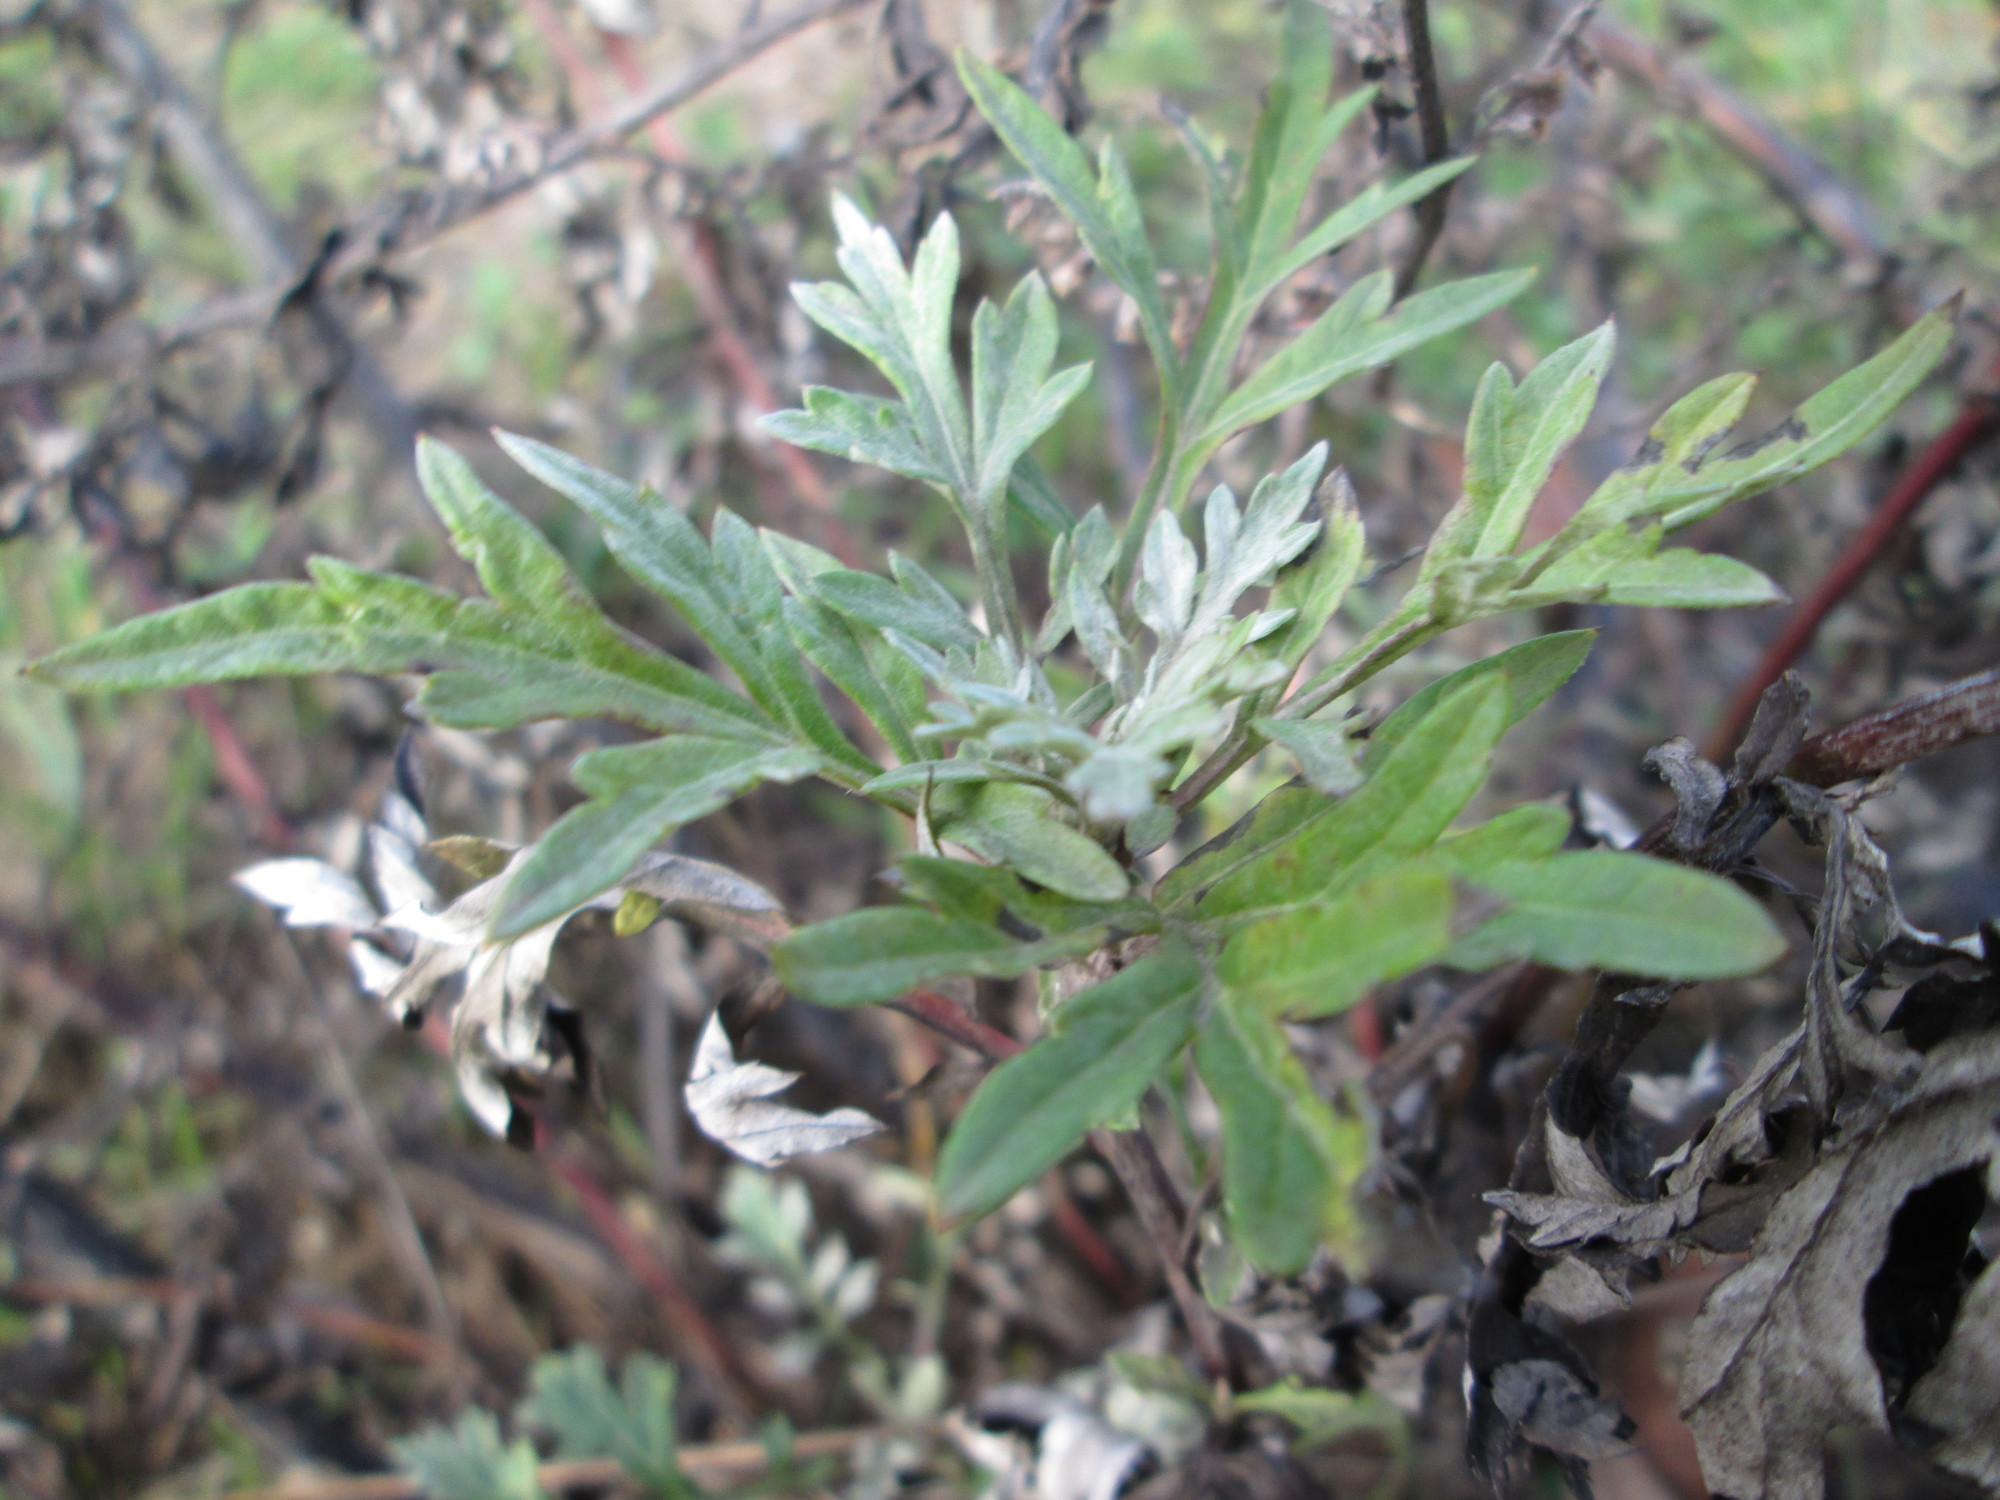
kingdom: Plantae
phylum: Tracheophyta
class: Magnoliopsida
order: Asterales
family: Asteraceae
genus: Artemisia
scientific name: Artemisia vulgaris
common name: Mugwort
